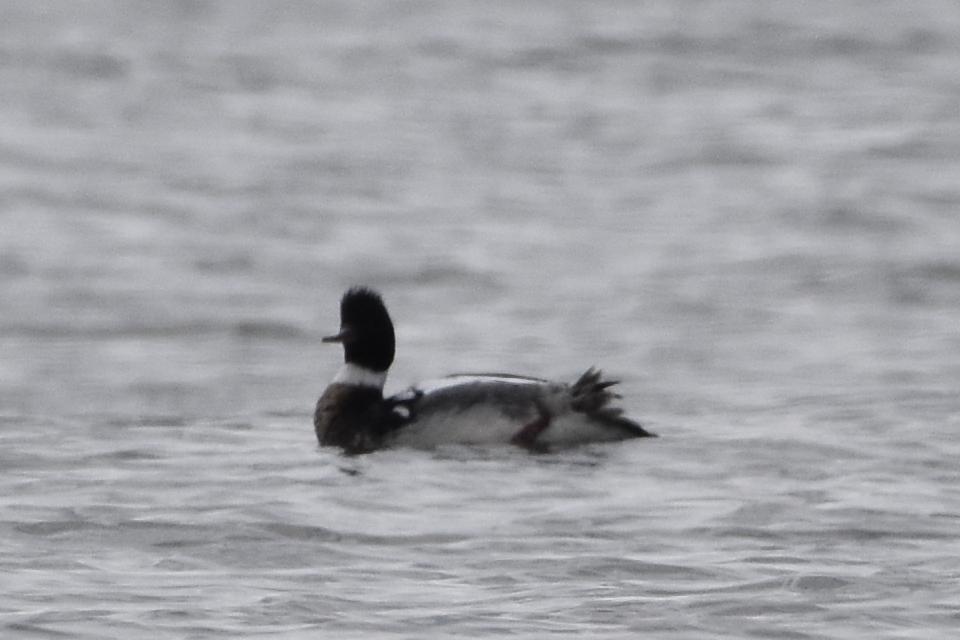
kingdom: Animalia
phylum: Chordata
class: Aves
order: Anseriformes
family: Anatidae
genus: Mergus
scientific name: Mergus serrator
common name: Red-breasted merganser
